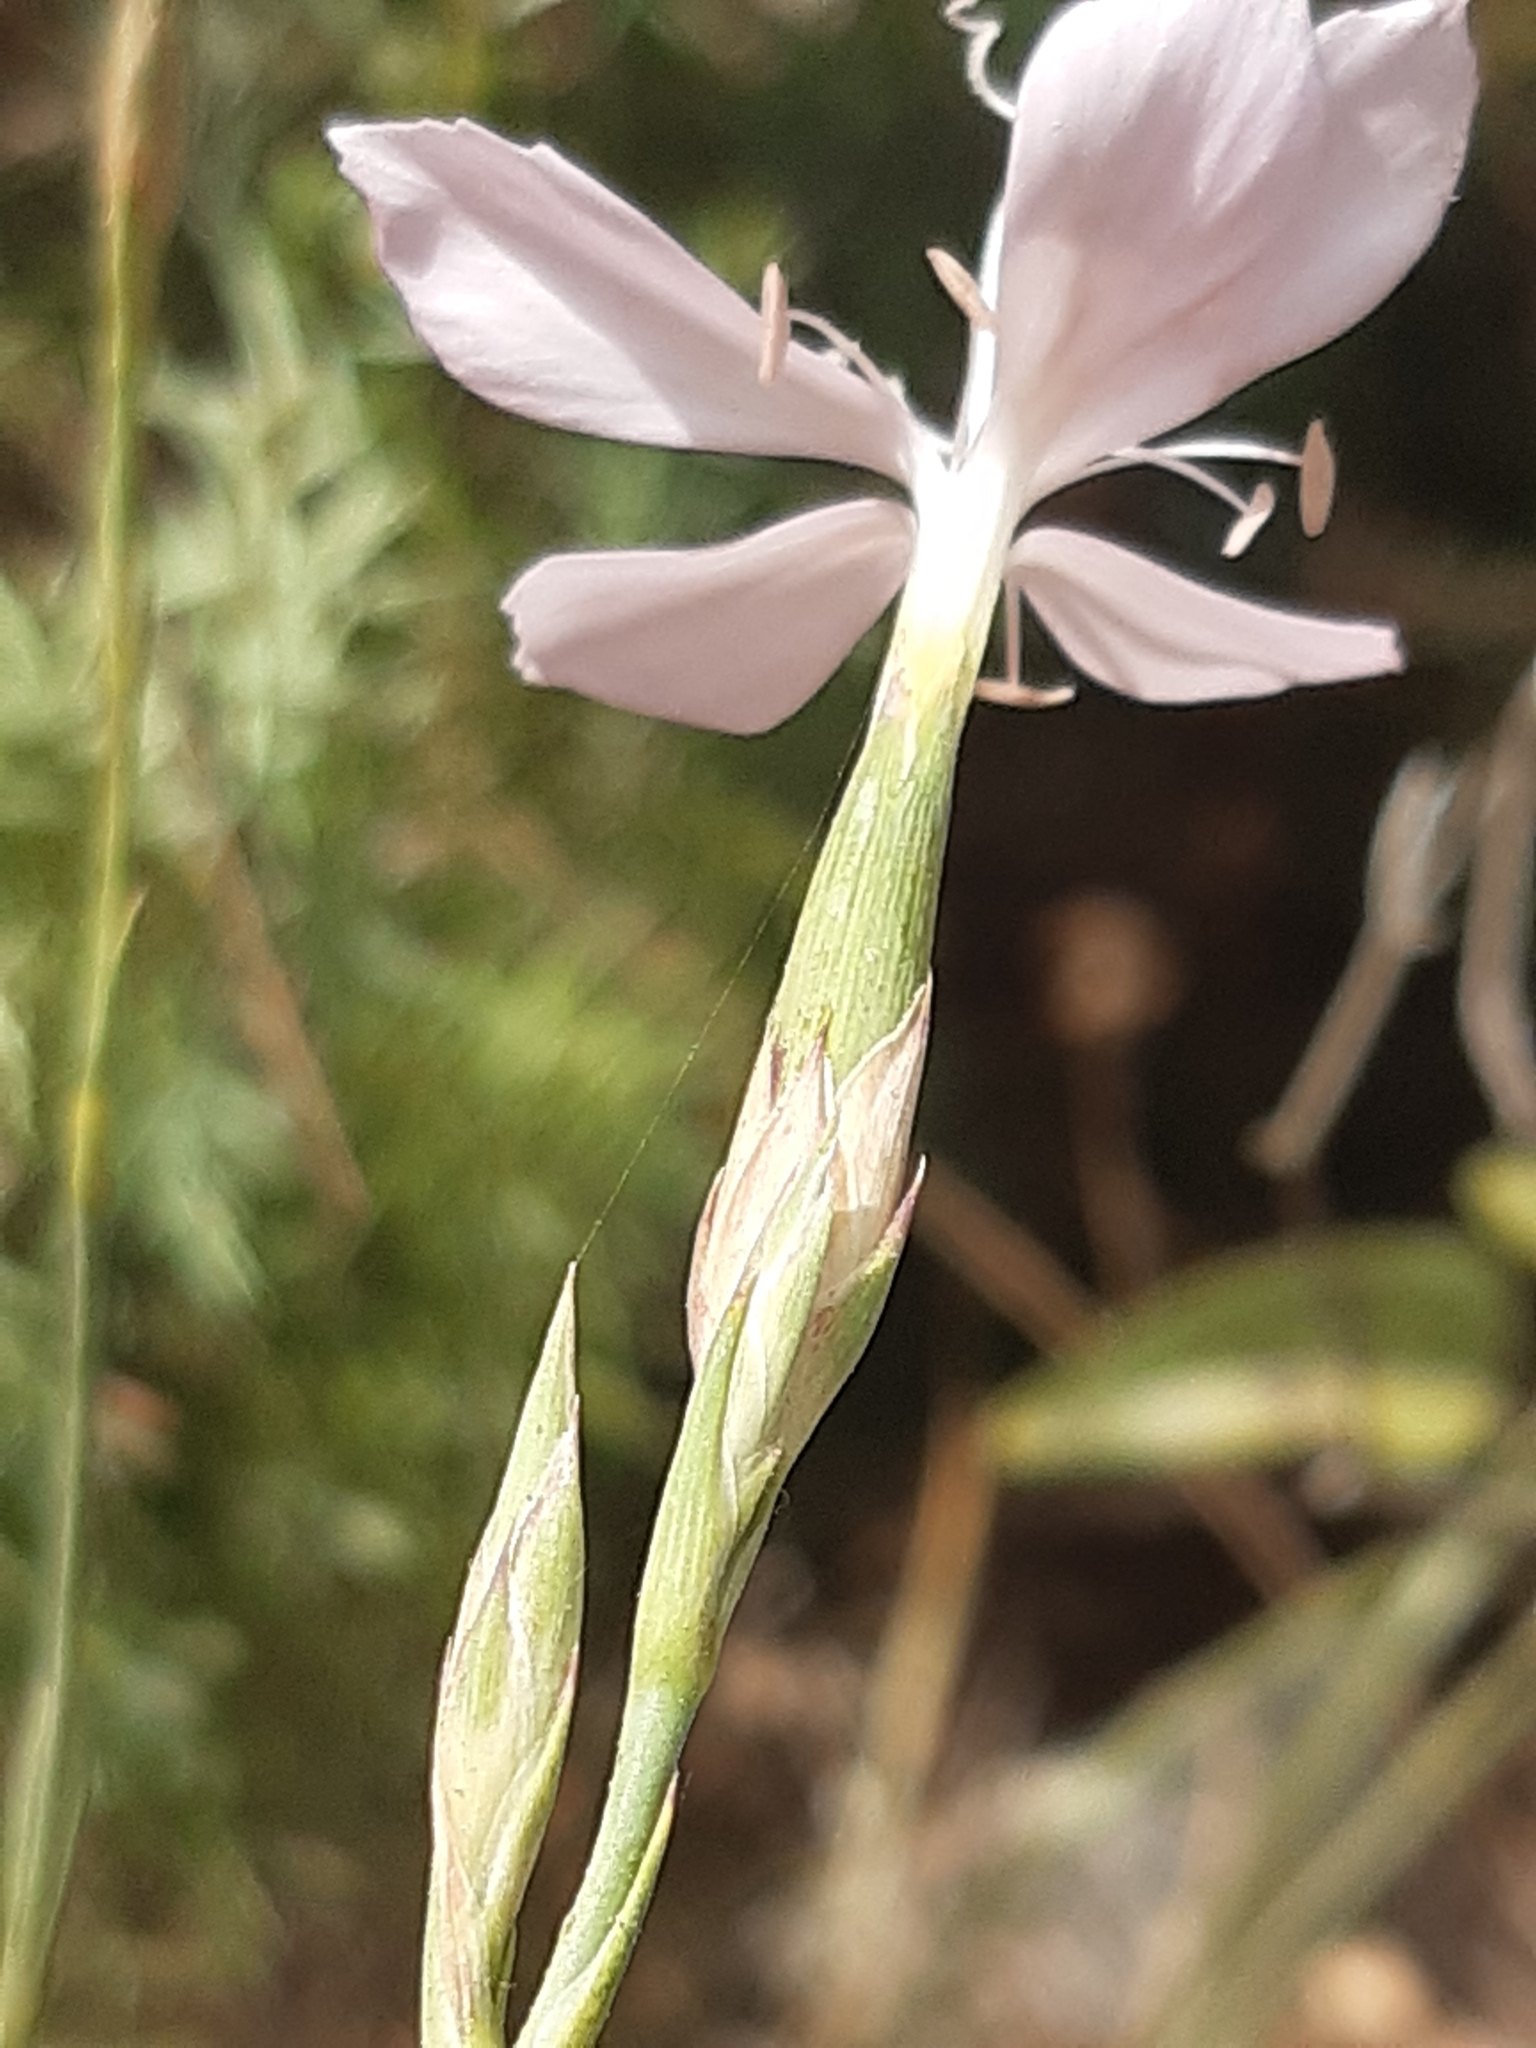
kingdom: Plantae
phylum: Tracheophyta
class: Magnoliopsida
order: Caryophyllales
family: Caryophyllaceae
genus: Dianthus
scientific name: Dianthus ciliatus
